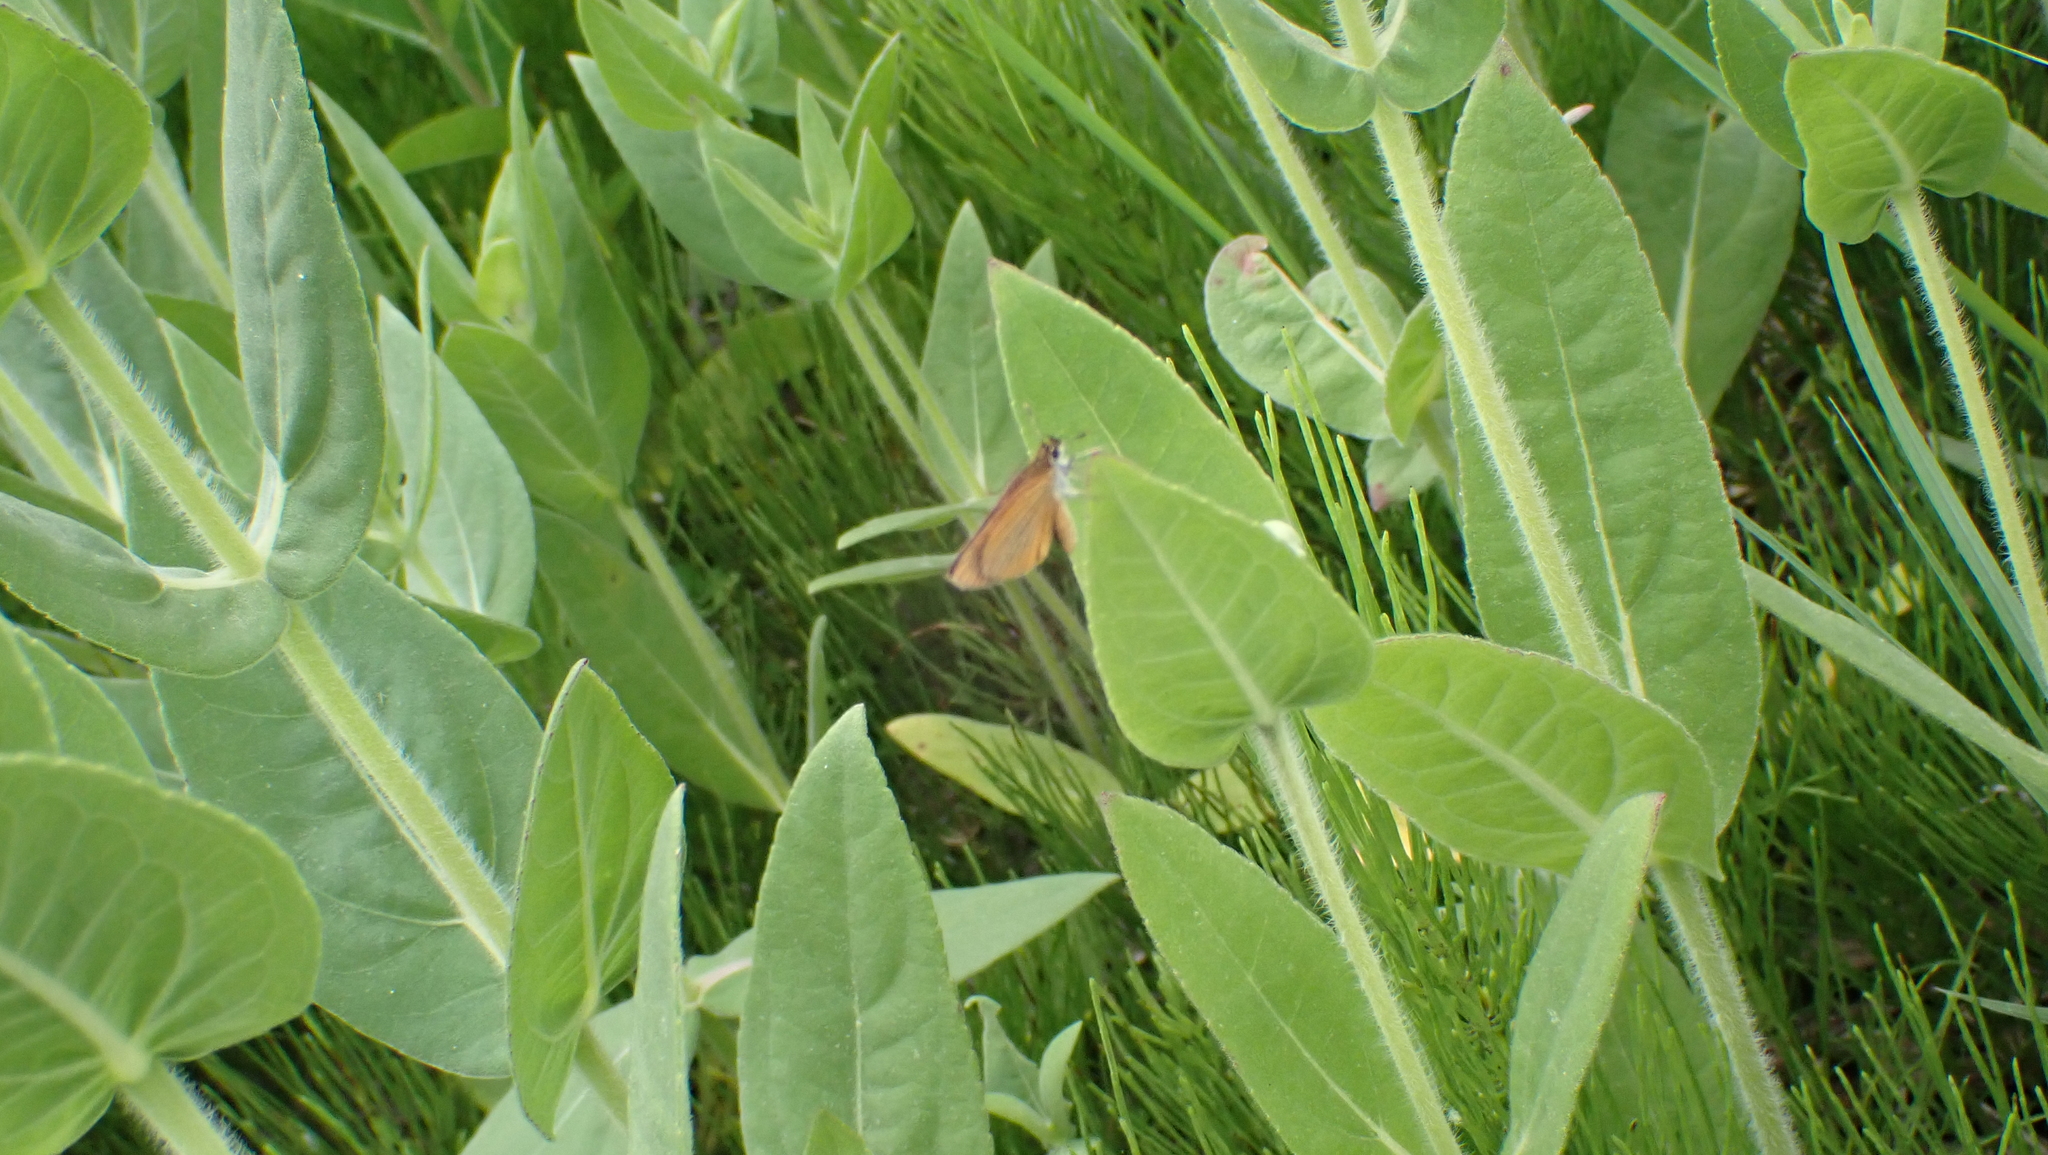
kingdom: Animalia
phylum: Arthropoda
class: Insecta
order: Lepidoptera
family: Hesperiidae
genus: Ancyloxypha
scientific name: Ancyloxypha numitor
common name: Least skipper
